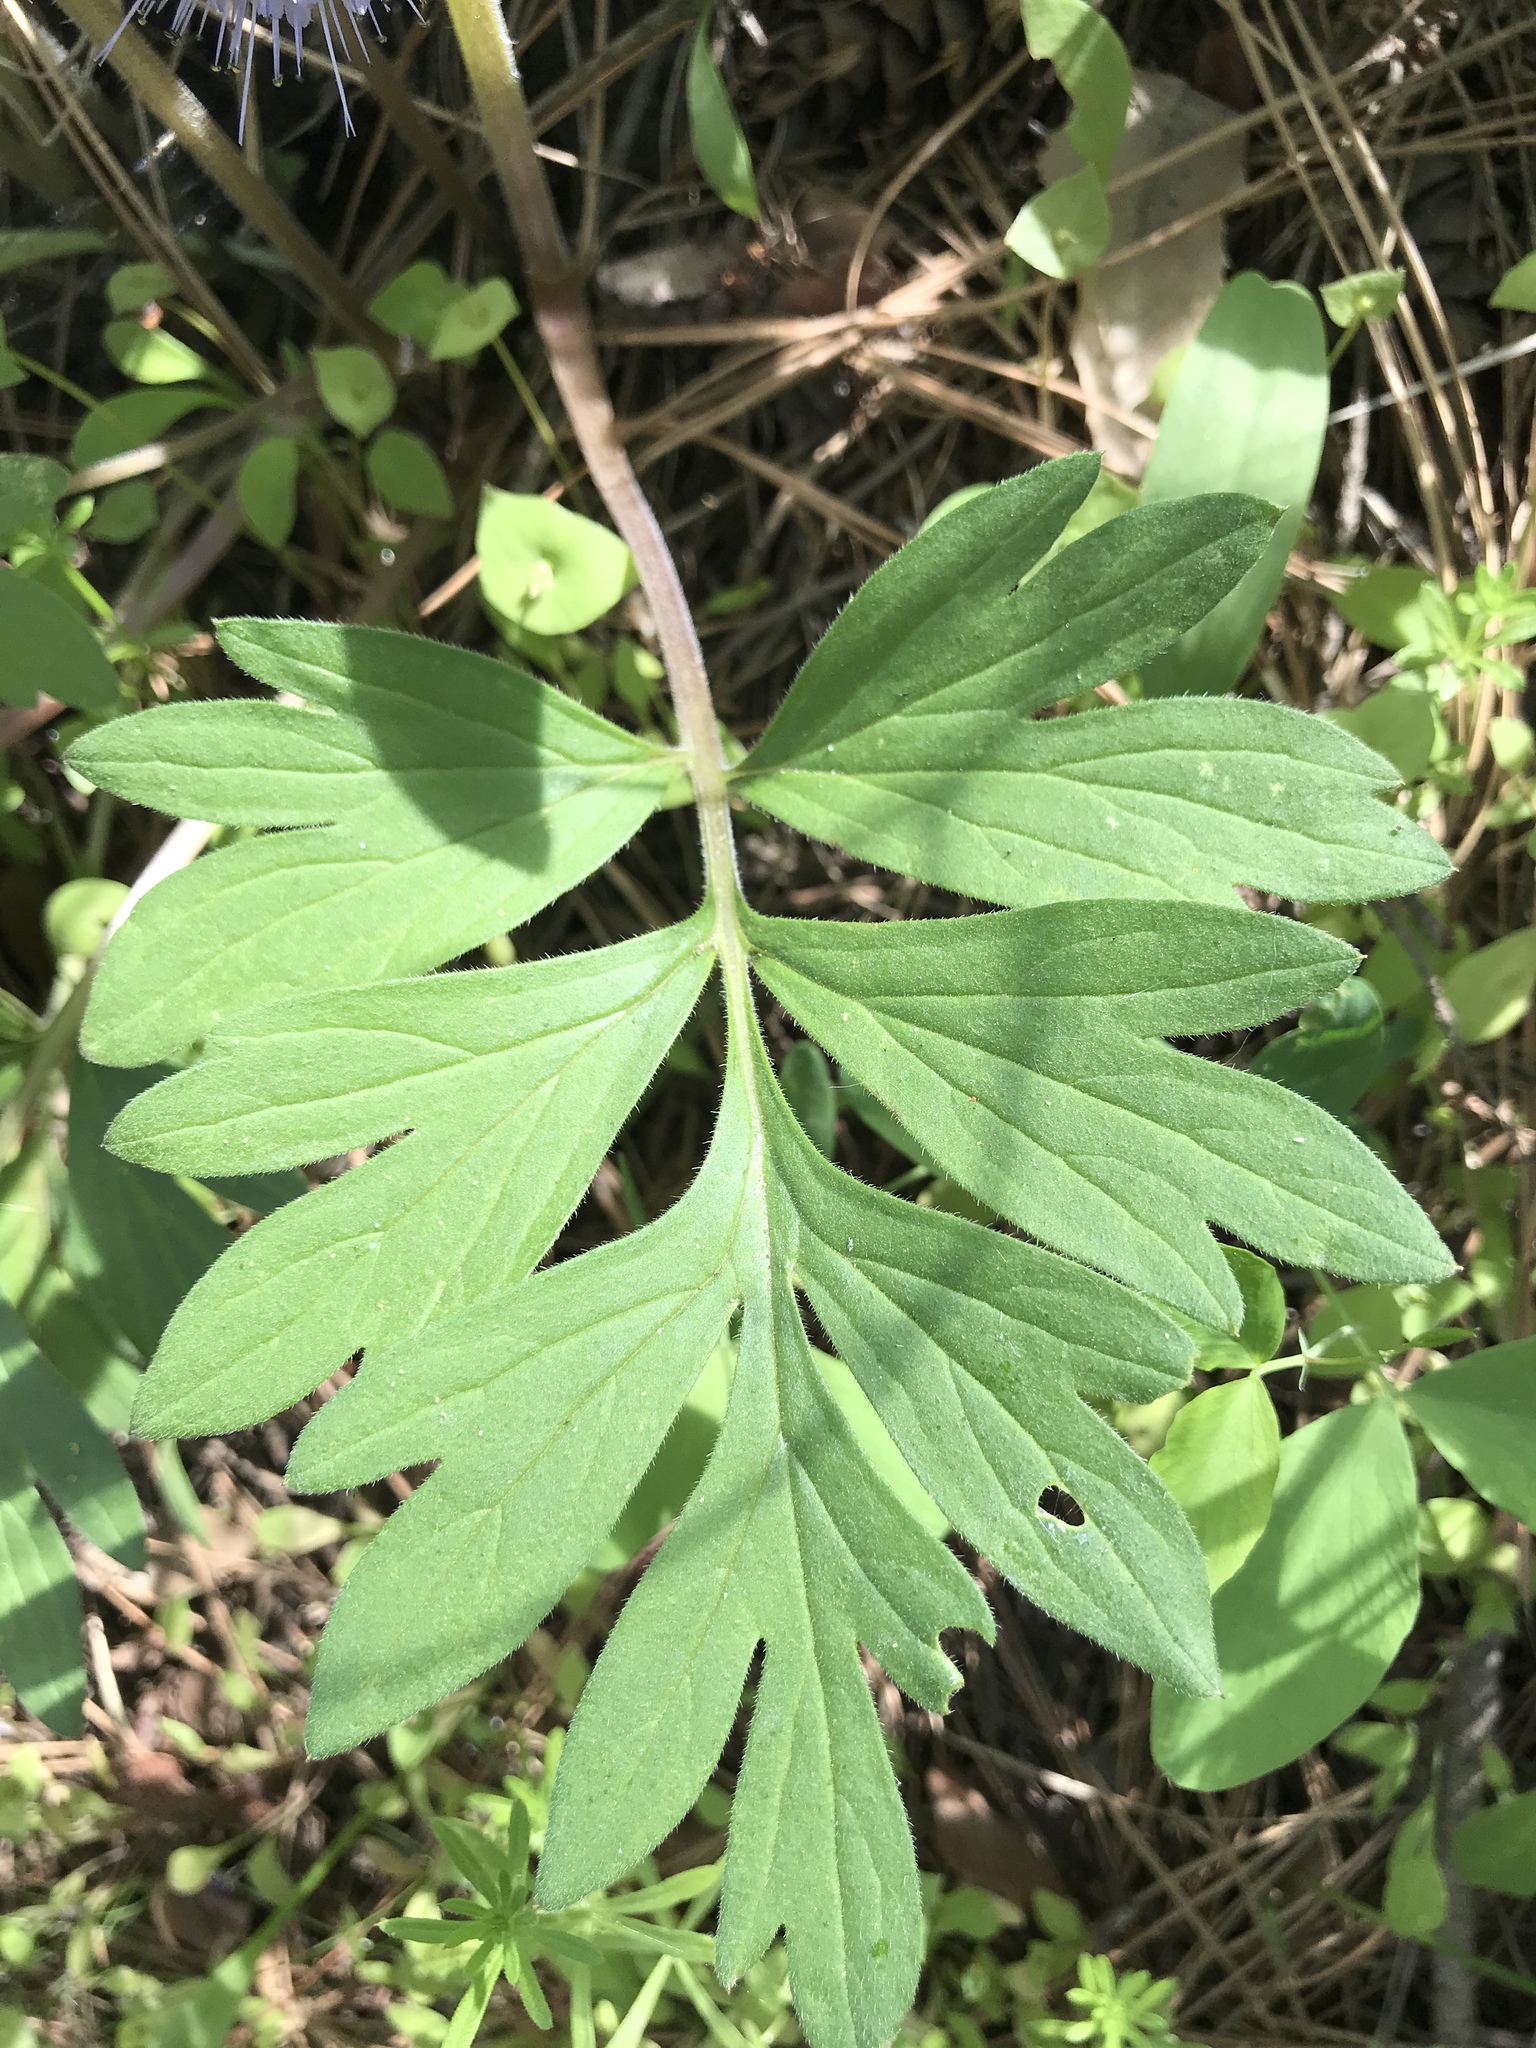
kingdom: Plantae
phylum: Tracheophyta
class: Magnoliopsida
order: Boraginales
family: Hydrophyllaceae
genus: Hydrophyllum
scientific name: Hydrophyllum capitatum
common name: Woollen-breeches
